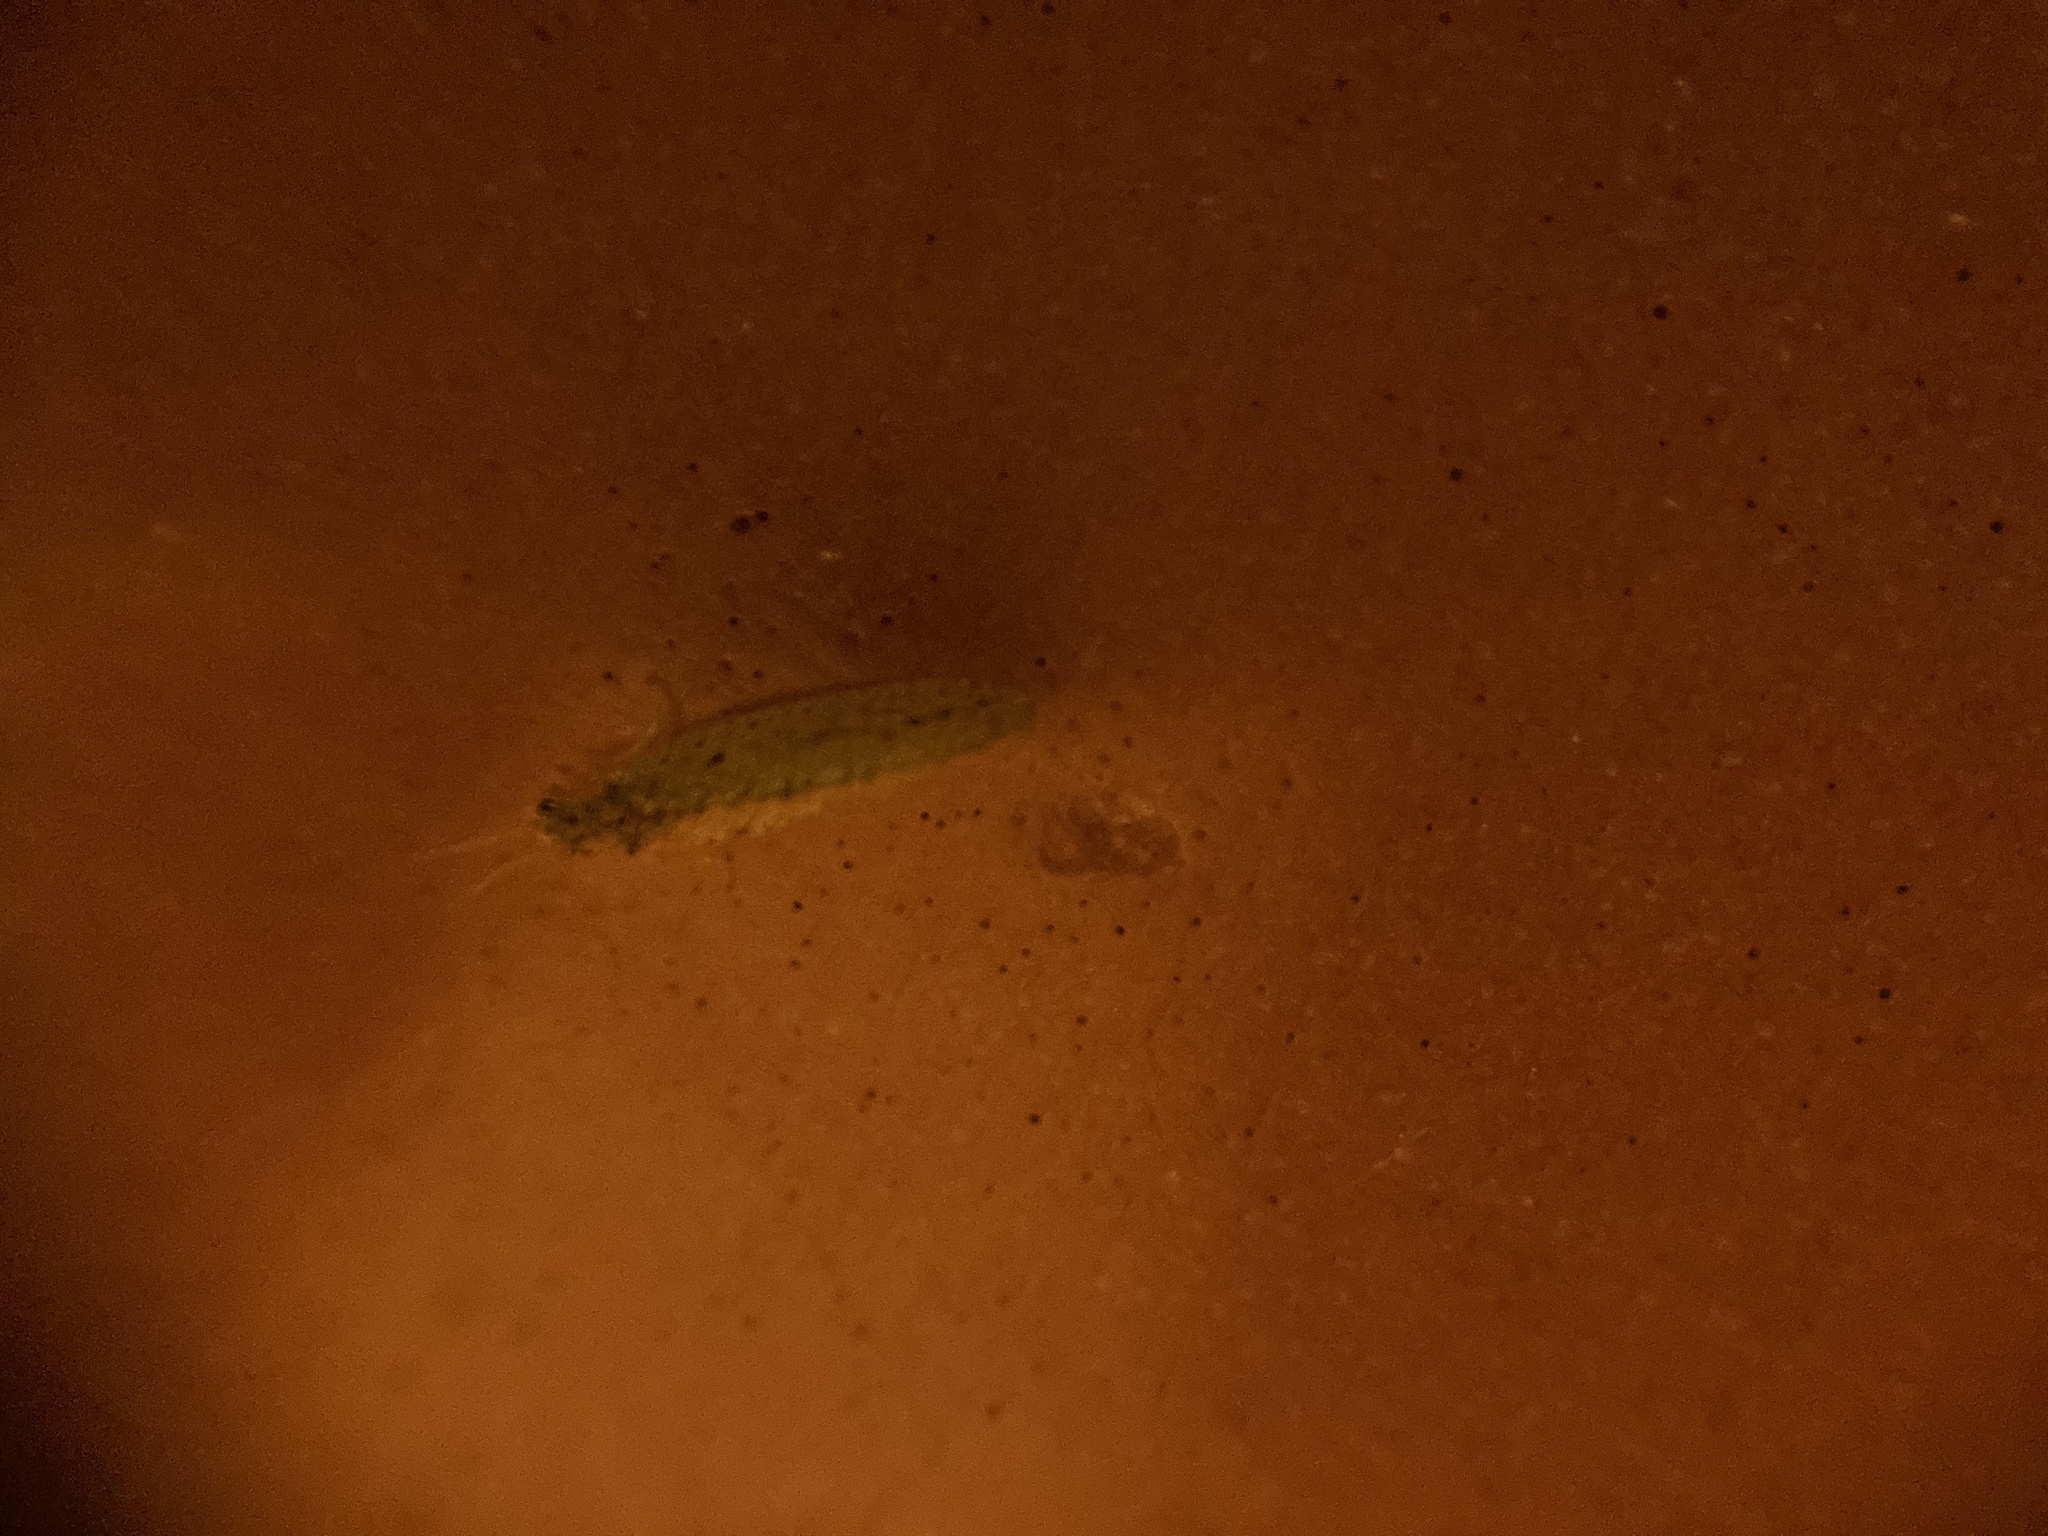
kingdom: Animalia
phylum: Arthropoda
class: Insecta
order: Neuroptera
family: Hemerobiidae
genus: Micromus
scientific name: Micromus subanticus
